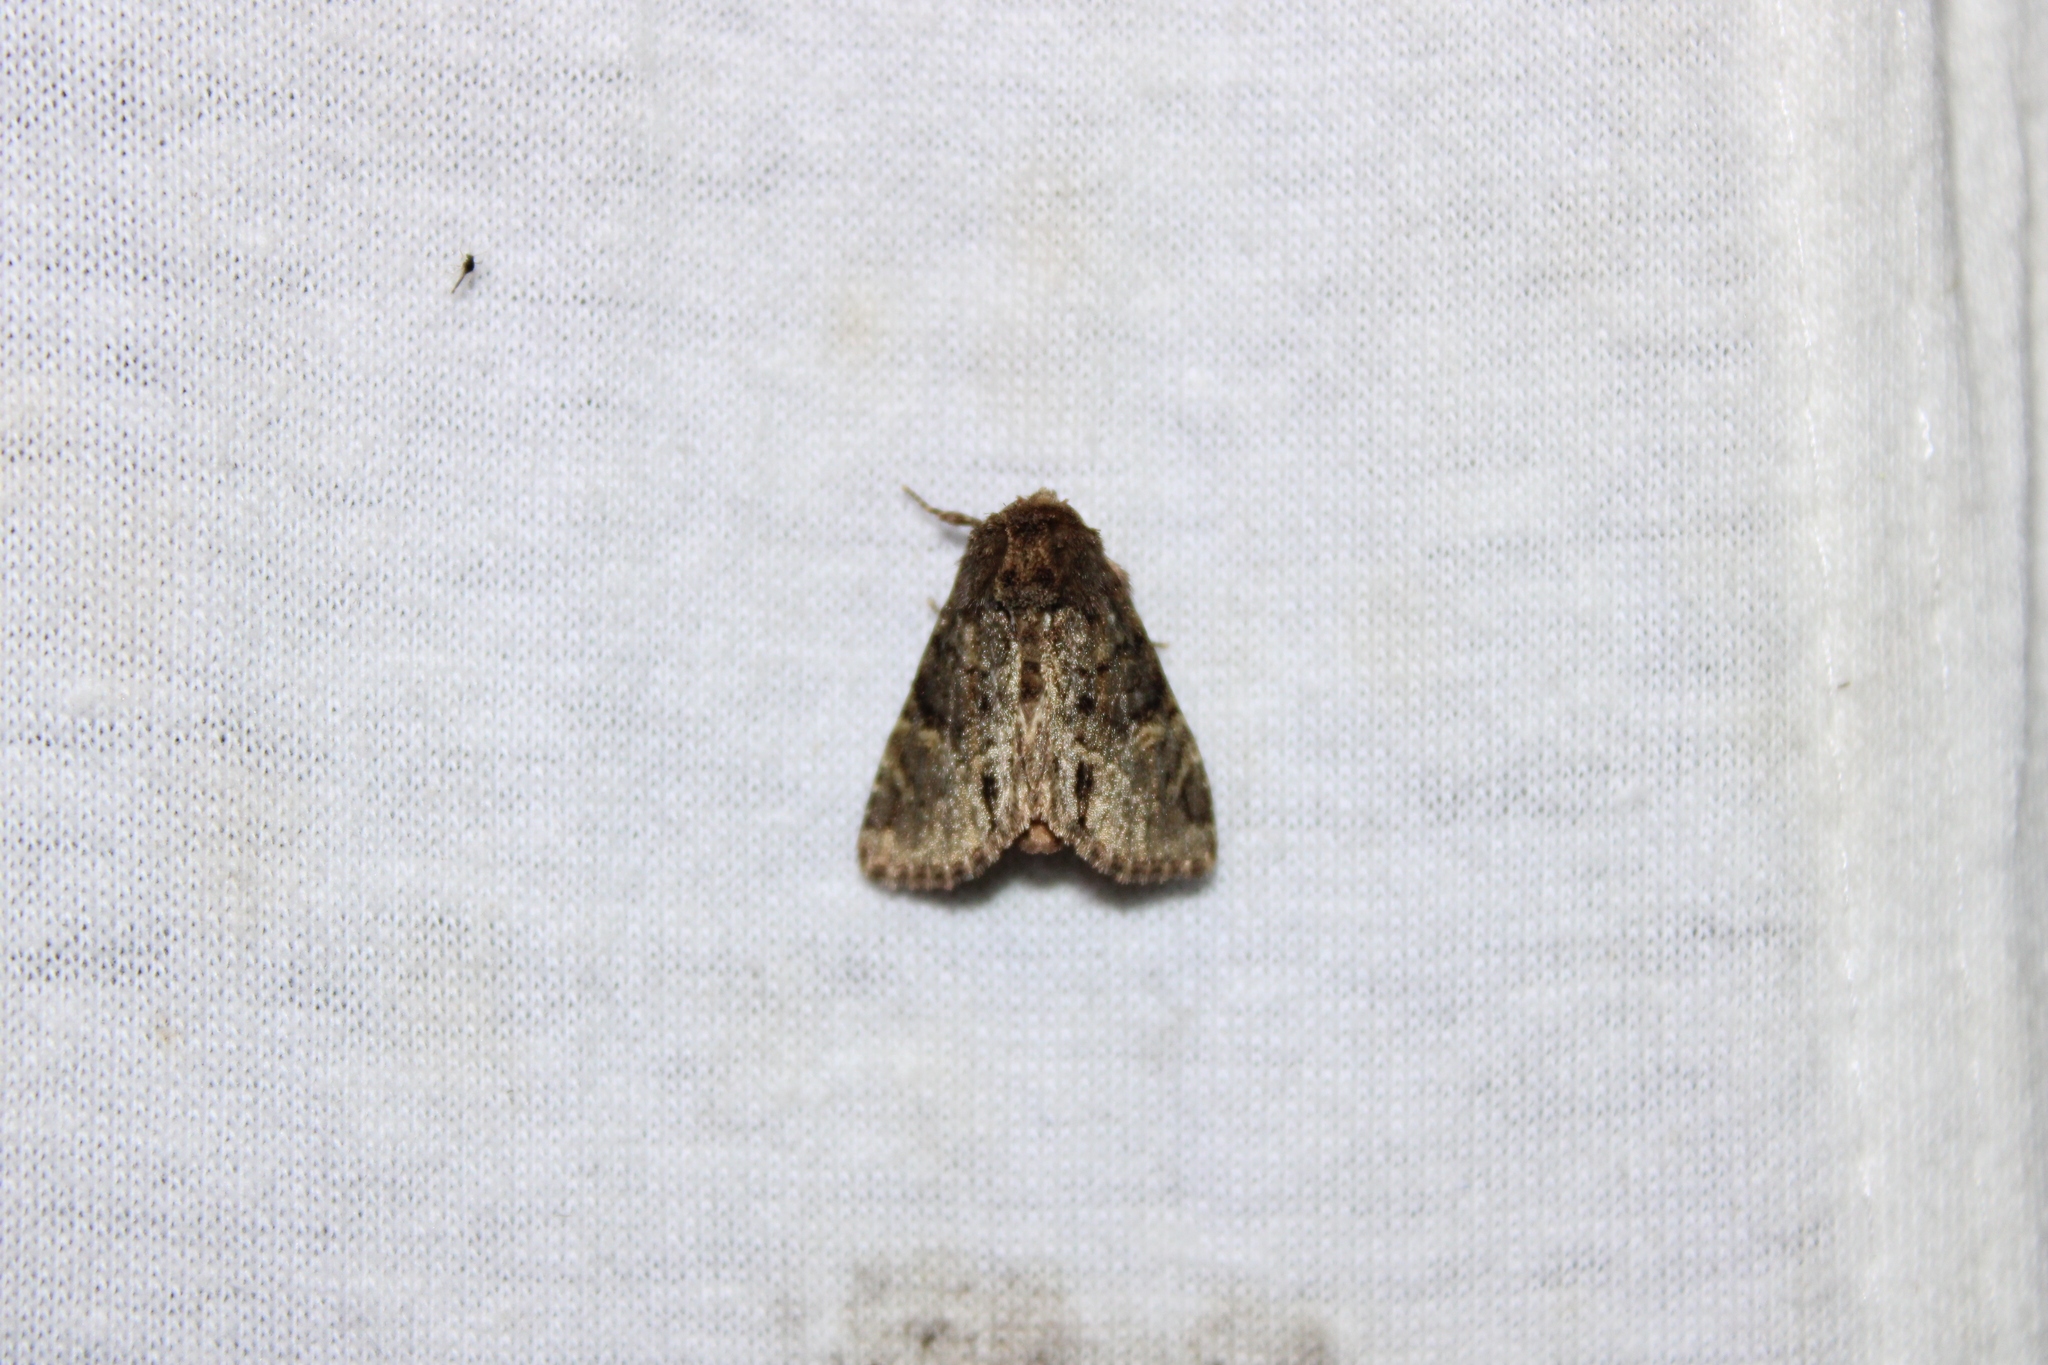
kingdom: Animalia
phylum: Arthropoda
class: Insecta
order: Lepidoptera
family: Noctuidae
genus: Phosphila
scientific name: Phosphila turbulenta
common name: Turbulent phosphila moth
